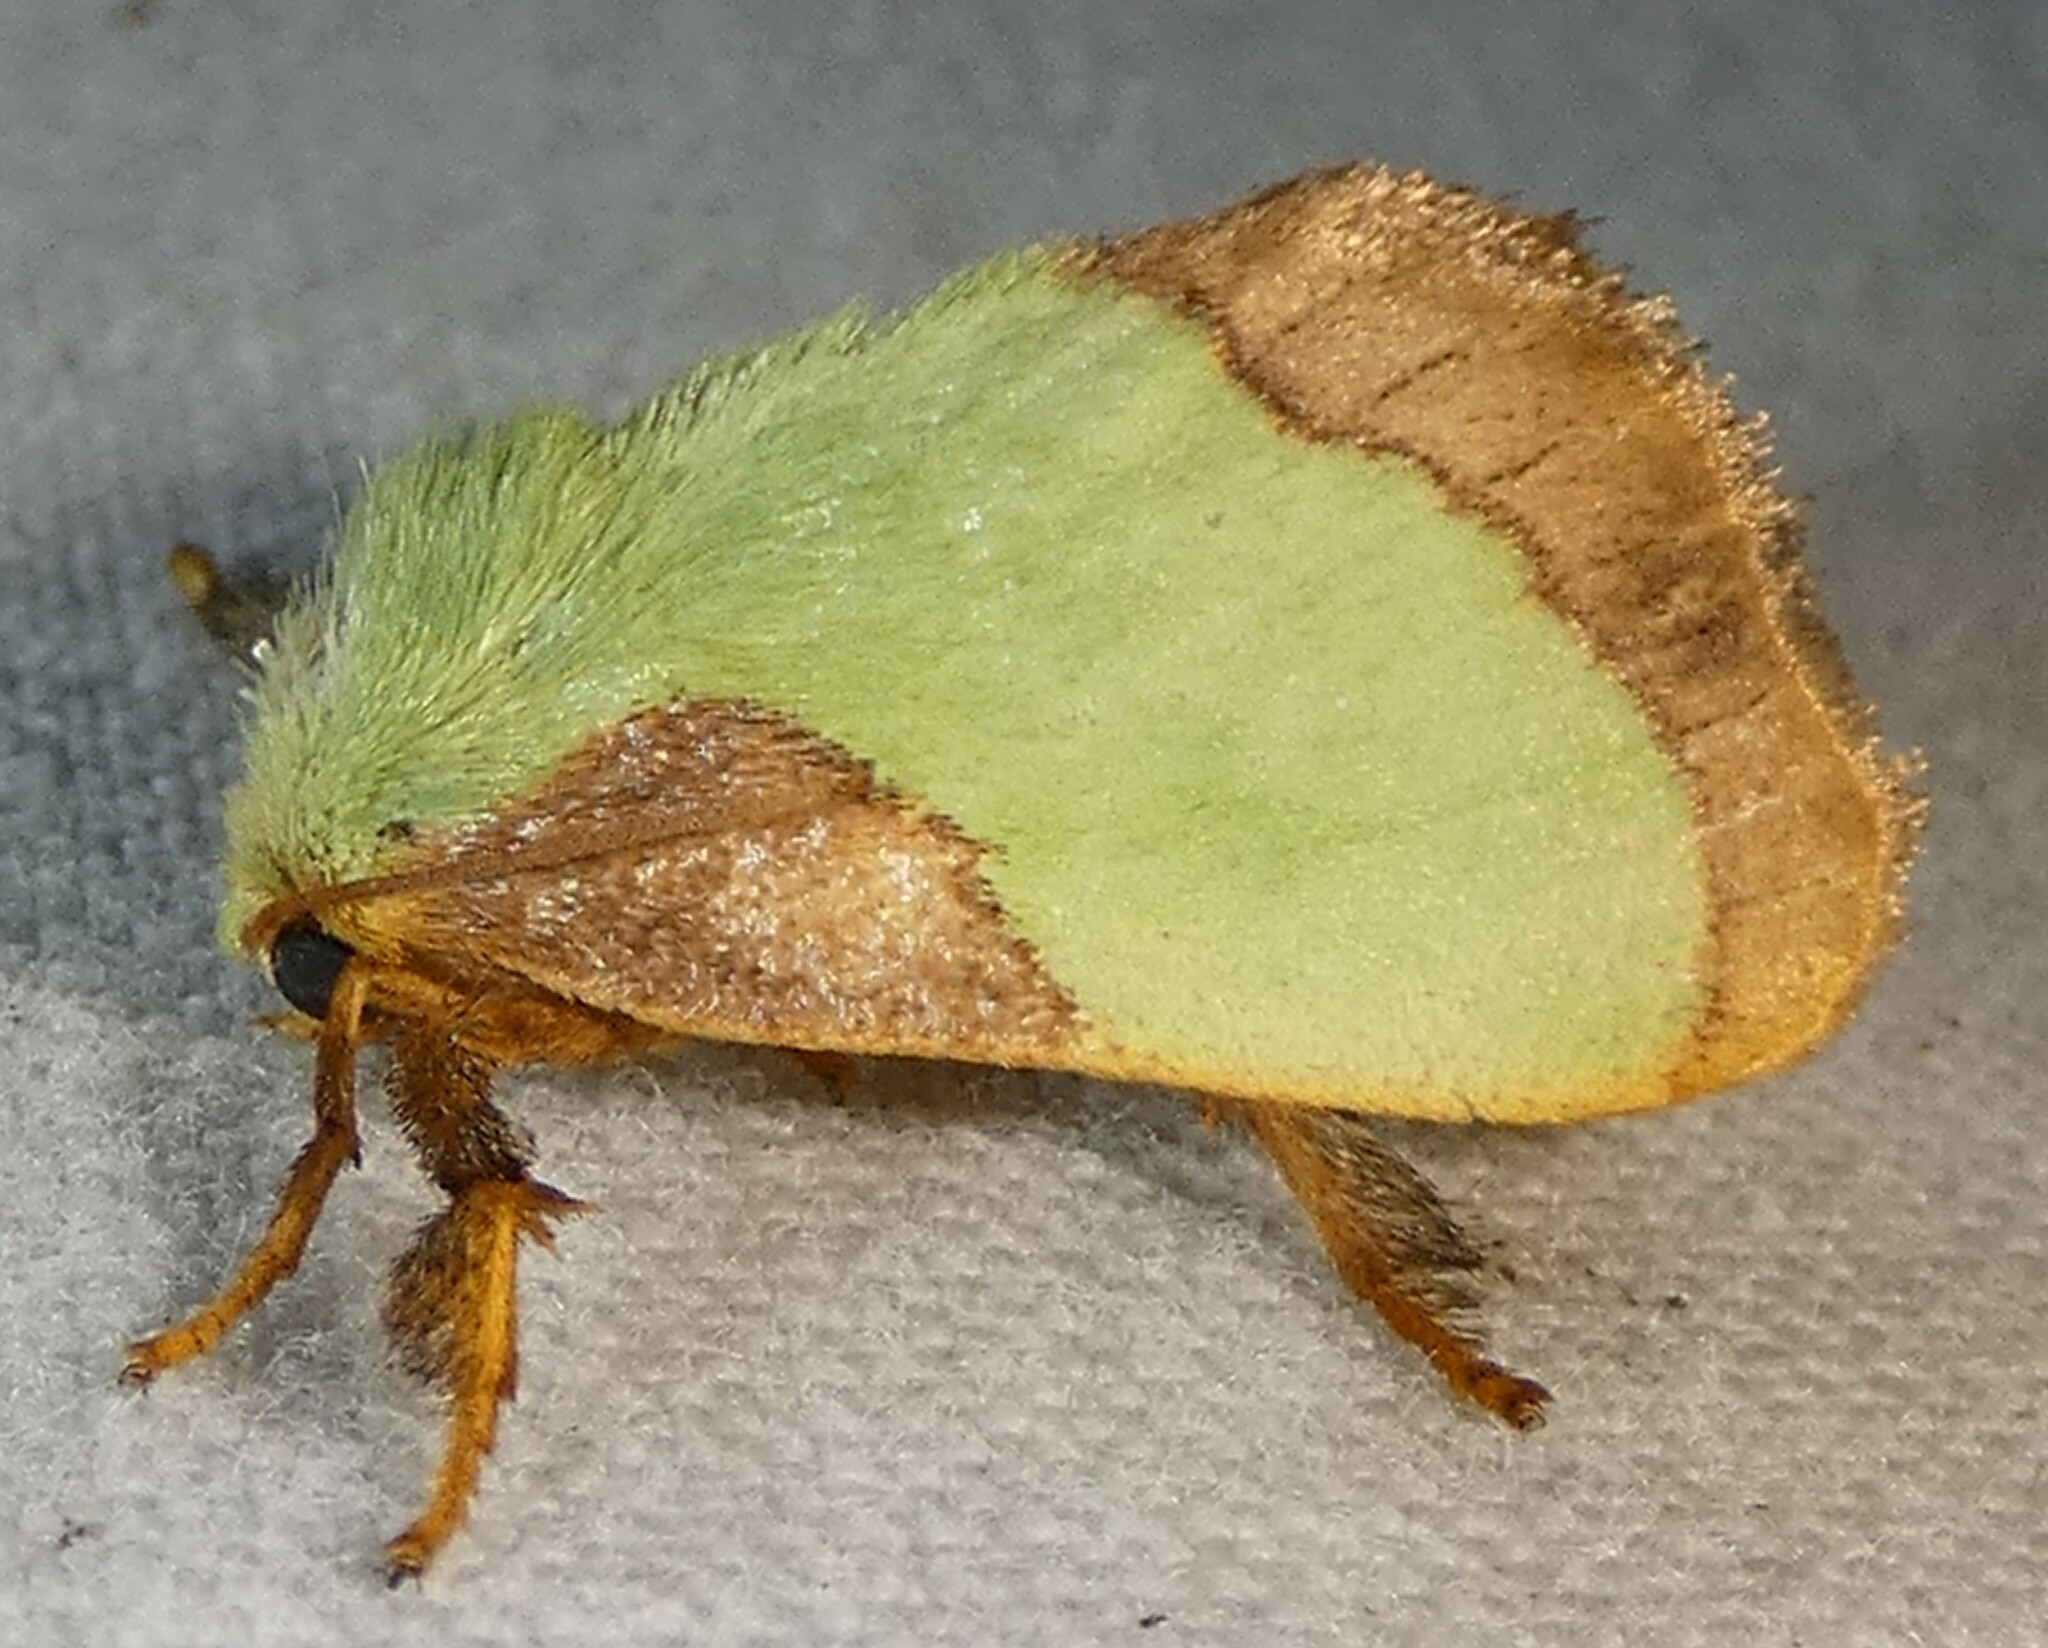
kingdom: Animalia
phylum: Arthropoda
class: Insecta
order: Lepidoptera
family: Limacodidae
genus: Parasa
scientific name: Parasa indetermina
